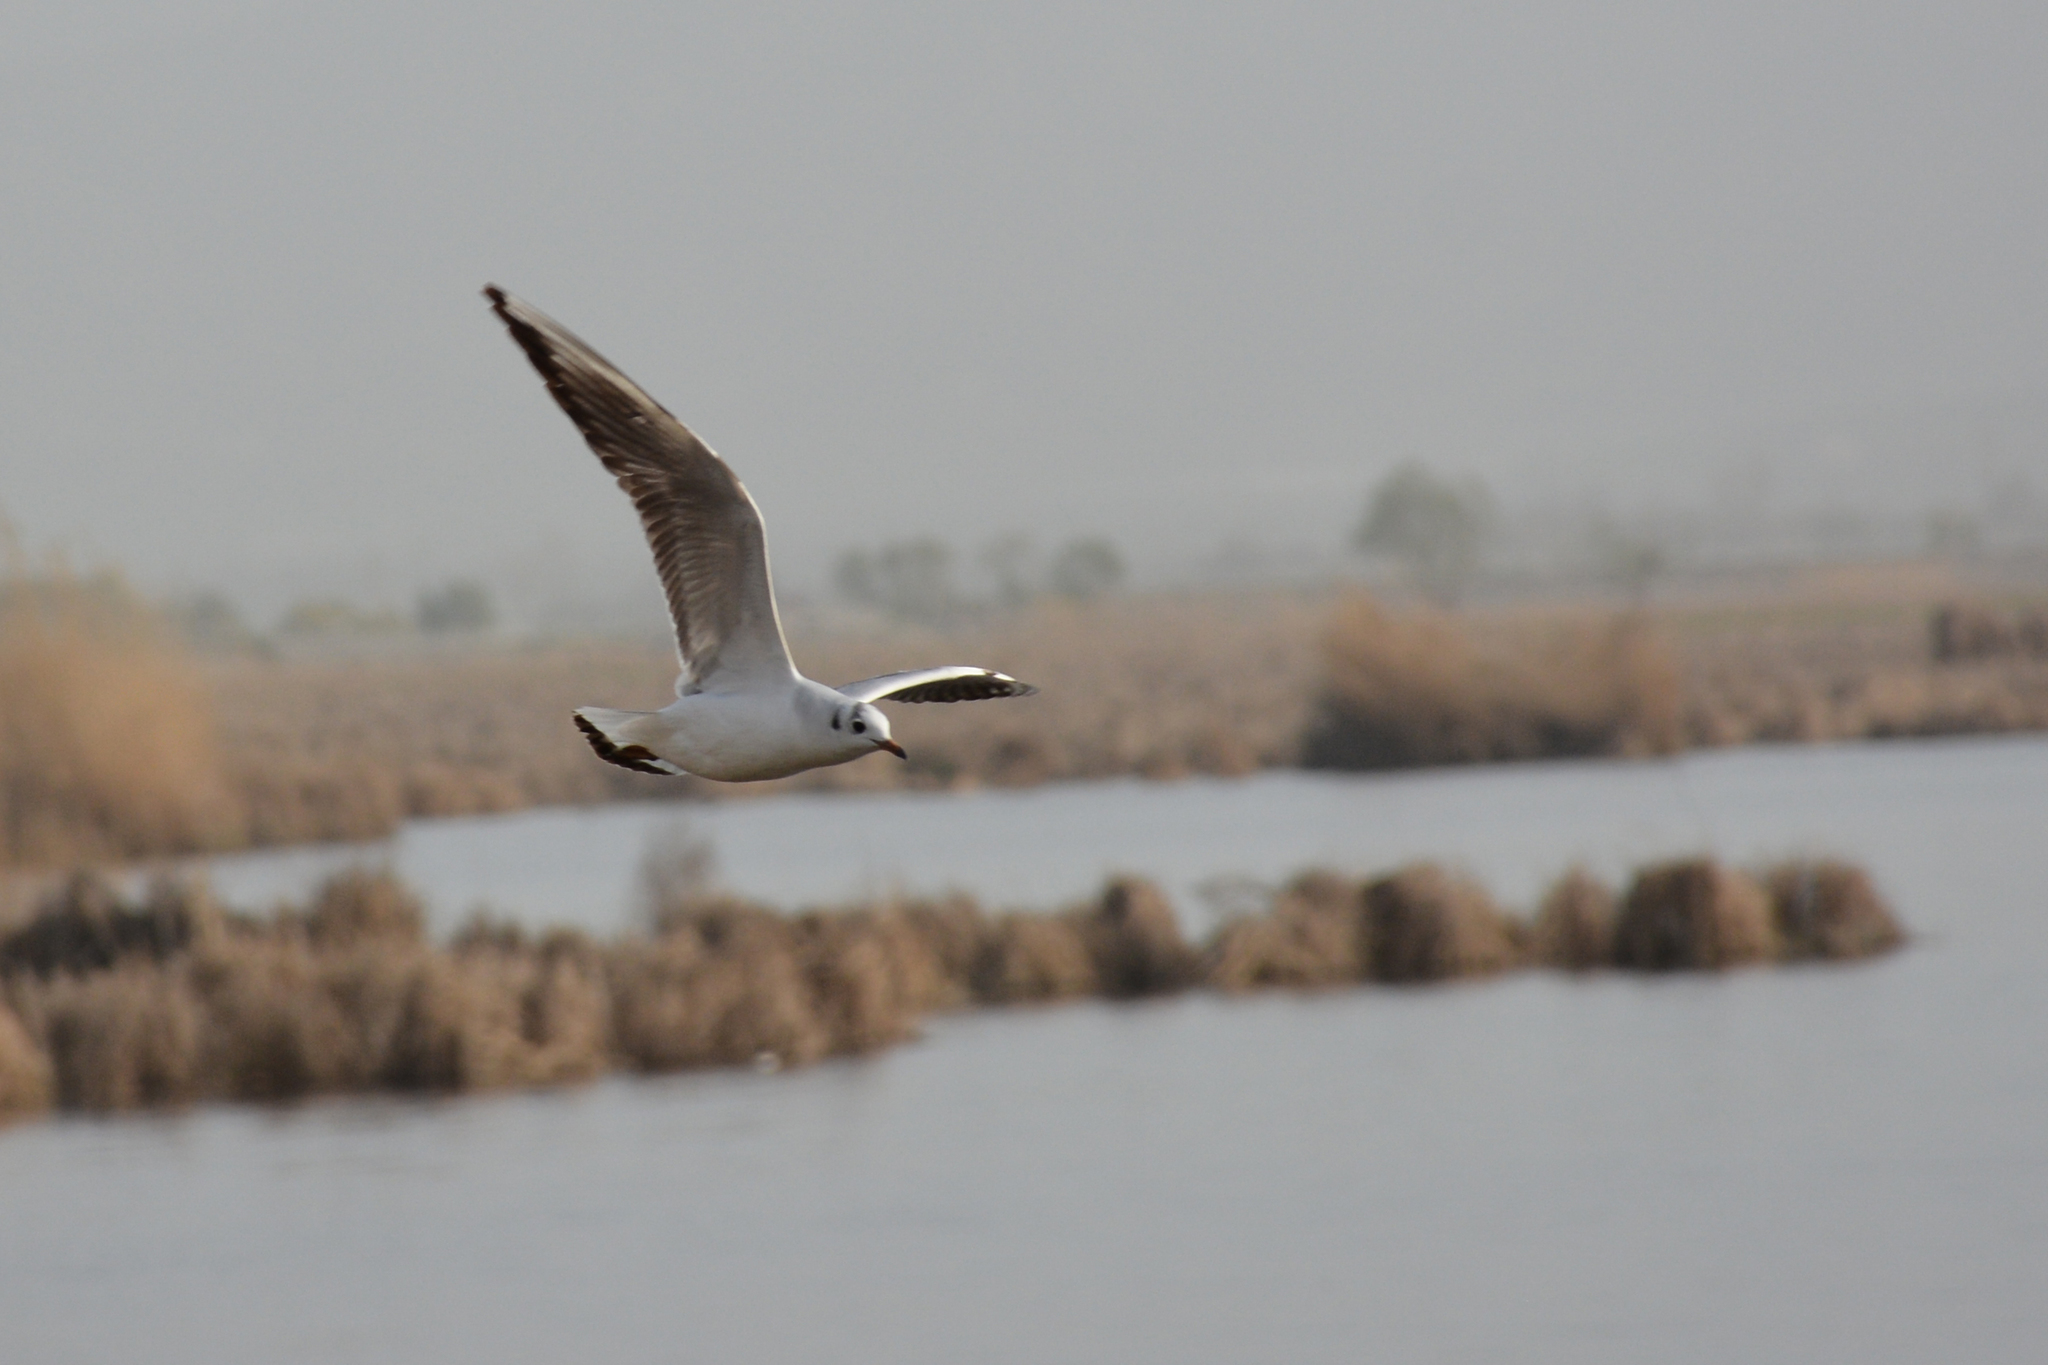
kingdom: Animalia
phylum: Chordata
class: Aves
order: Charadriiformes
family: Laridae
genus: Chroicocephalus
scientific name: Chroicocephalus ridibundus
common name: Black-headed gull
